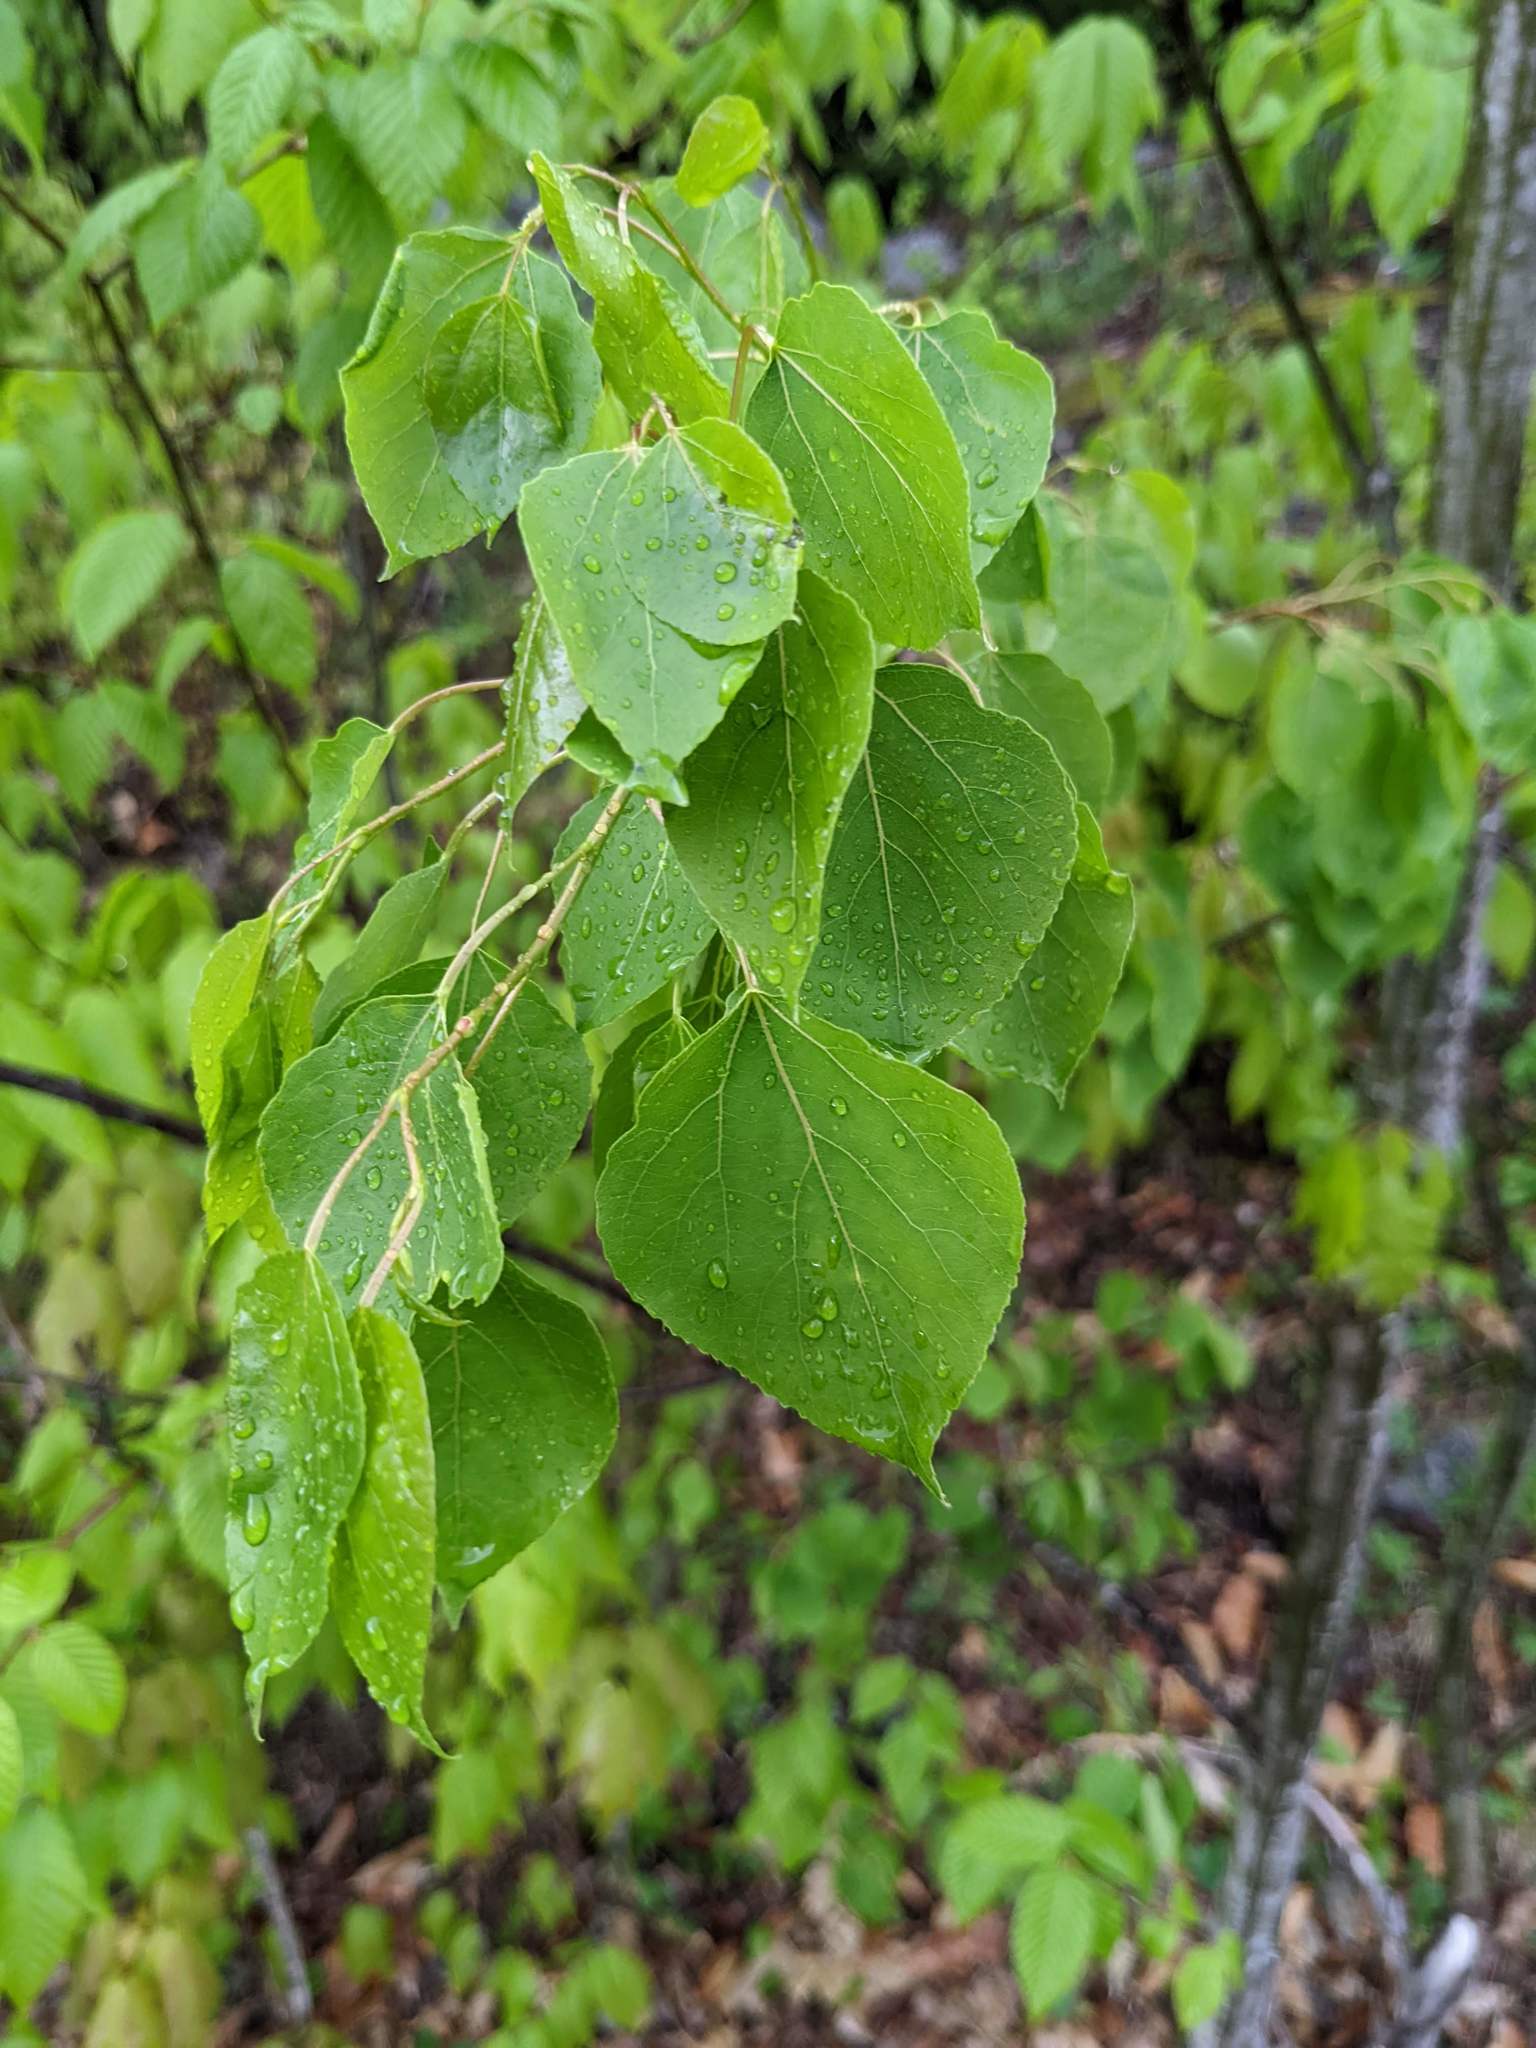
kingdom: Plantae
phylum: Tracheophyta
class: Magnoliopsida
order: Malpighiales
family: Salicaceae
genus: Populus
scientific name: Populus tremuloides
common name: Quaking aspen
